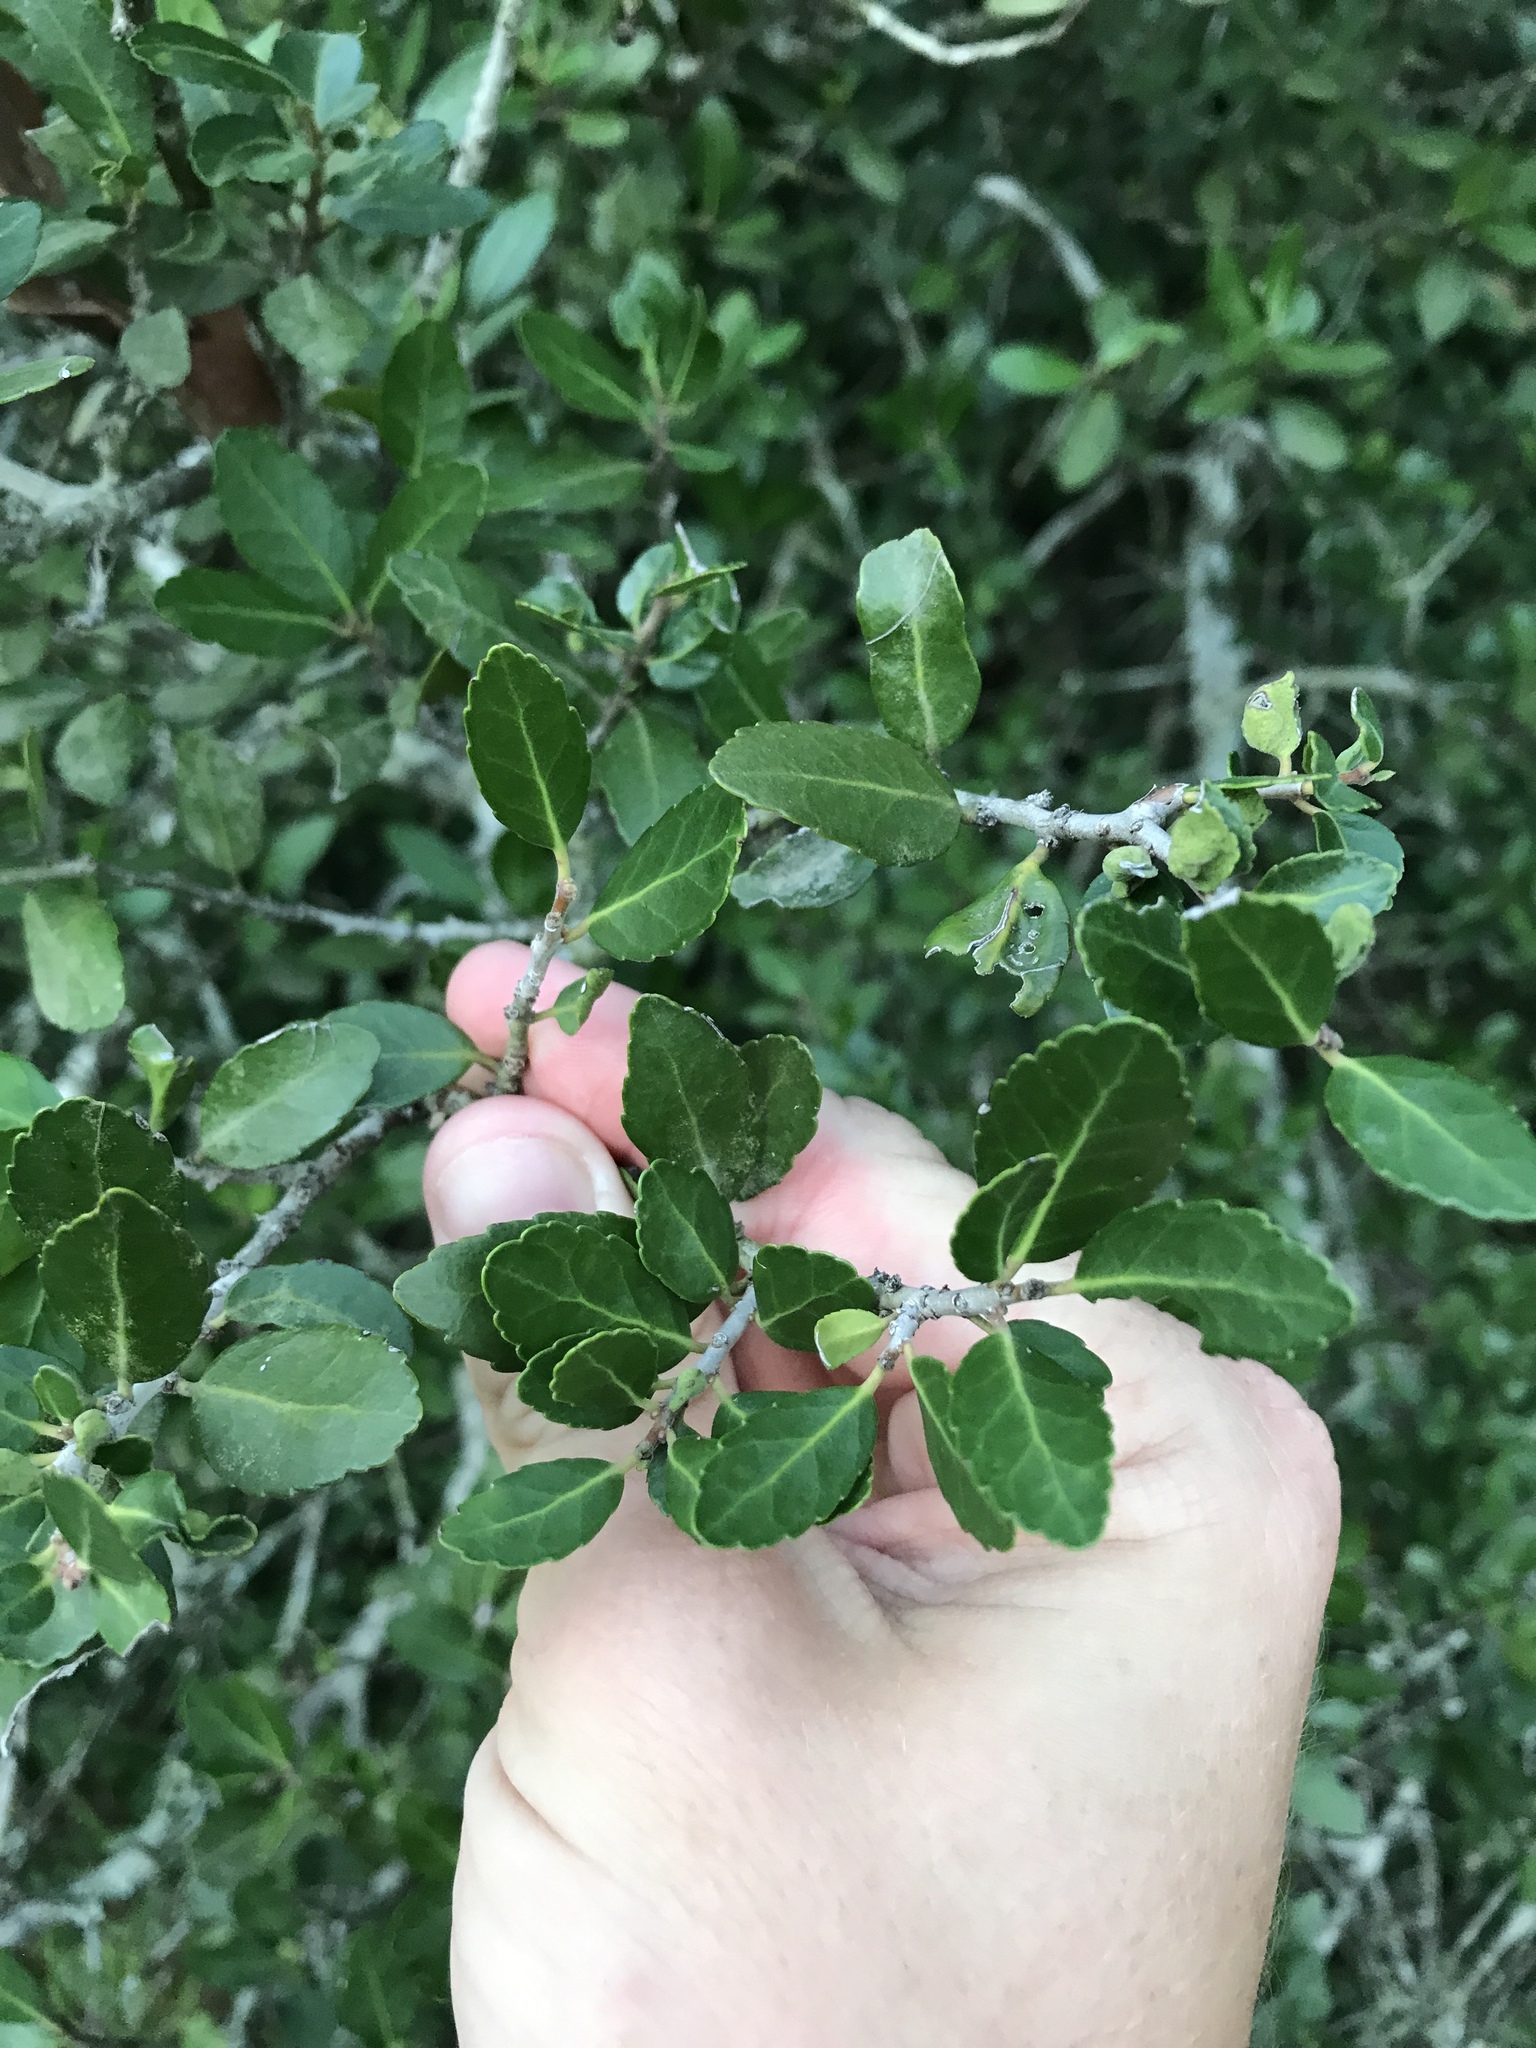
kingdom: Plantae
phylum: Tracheophyta
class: Magnoliopsida
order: Aquifoliales
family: Aquifoliaceae
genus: Ilex
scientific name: Ilex vomitoria
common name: Yaupon holly
